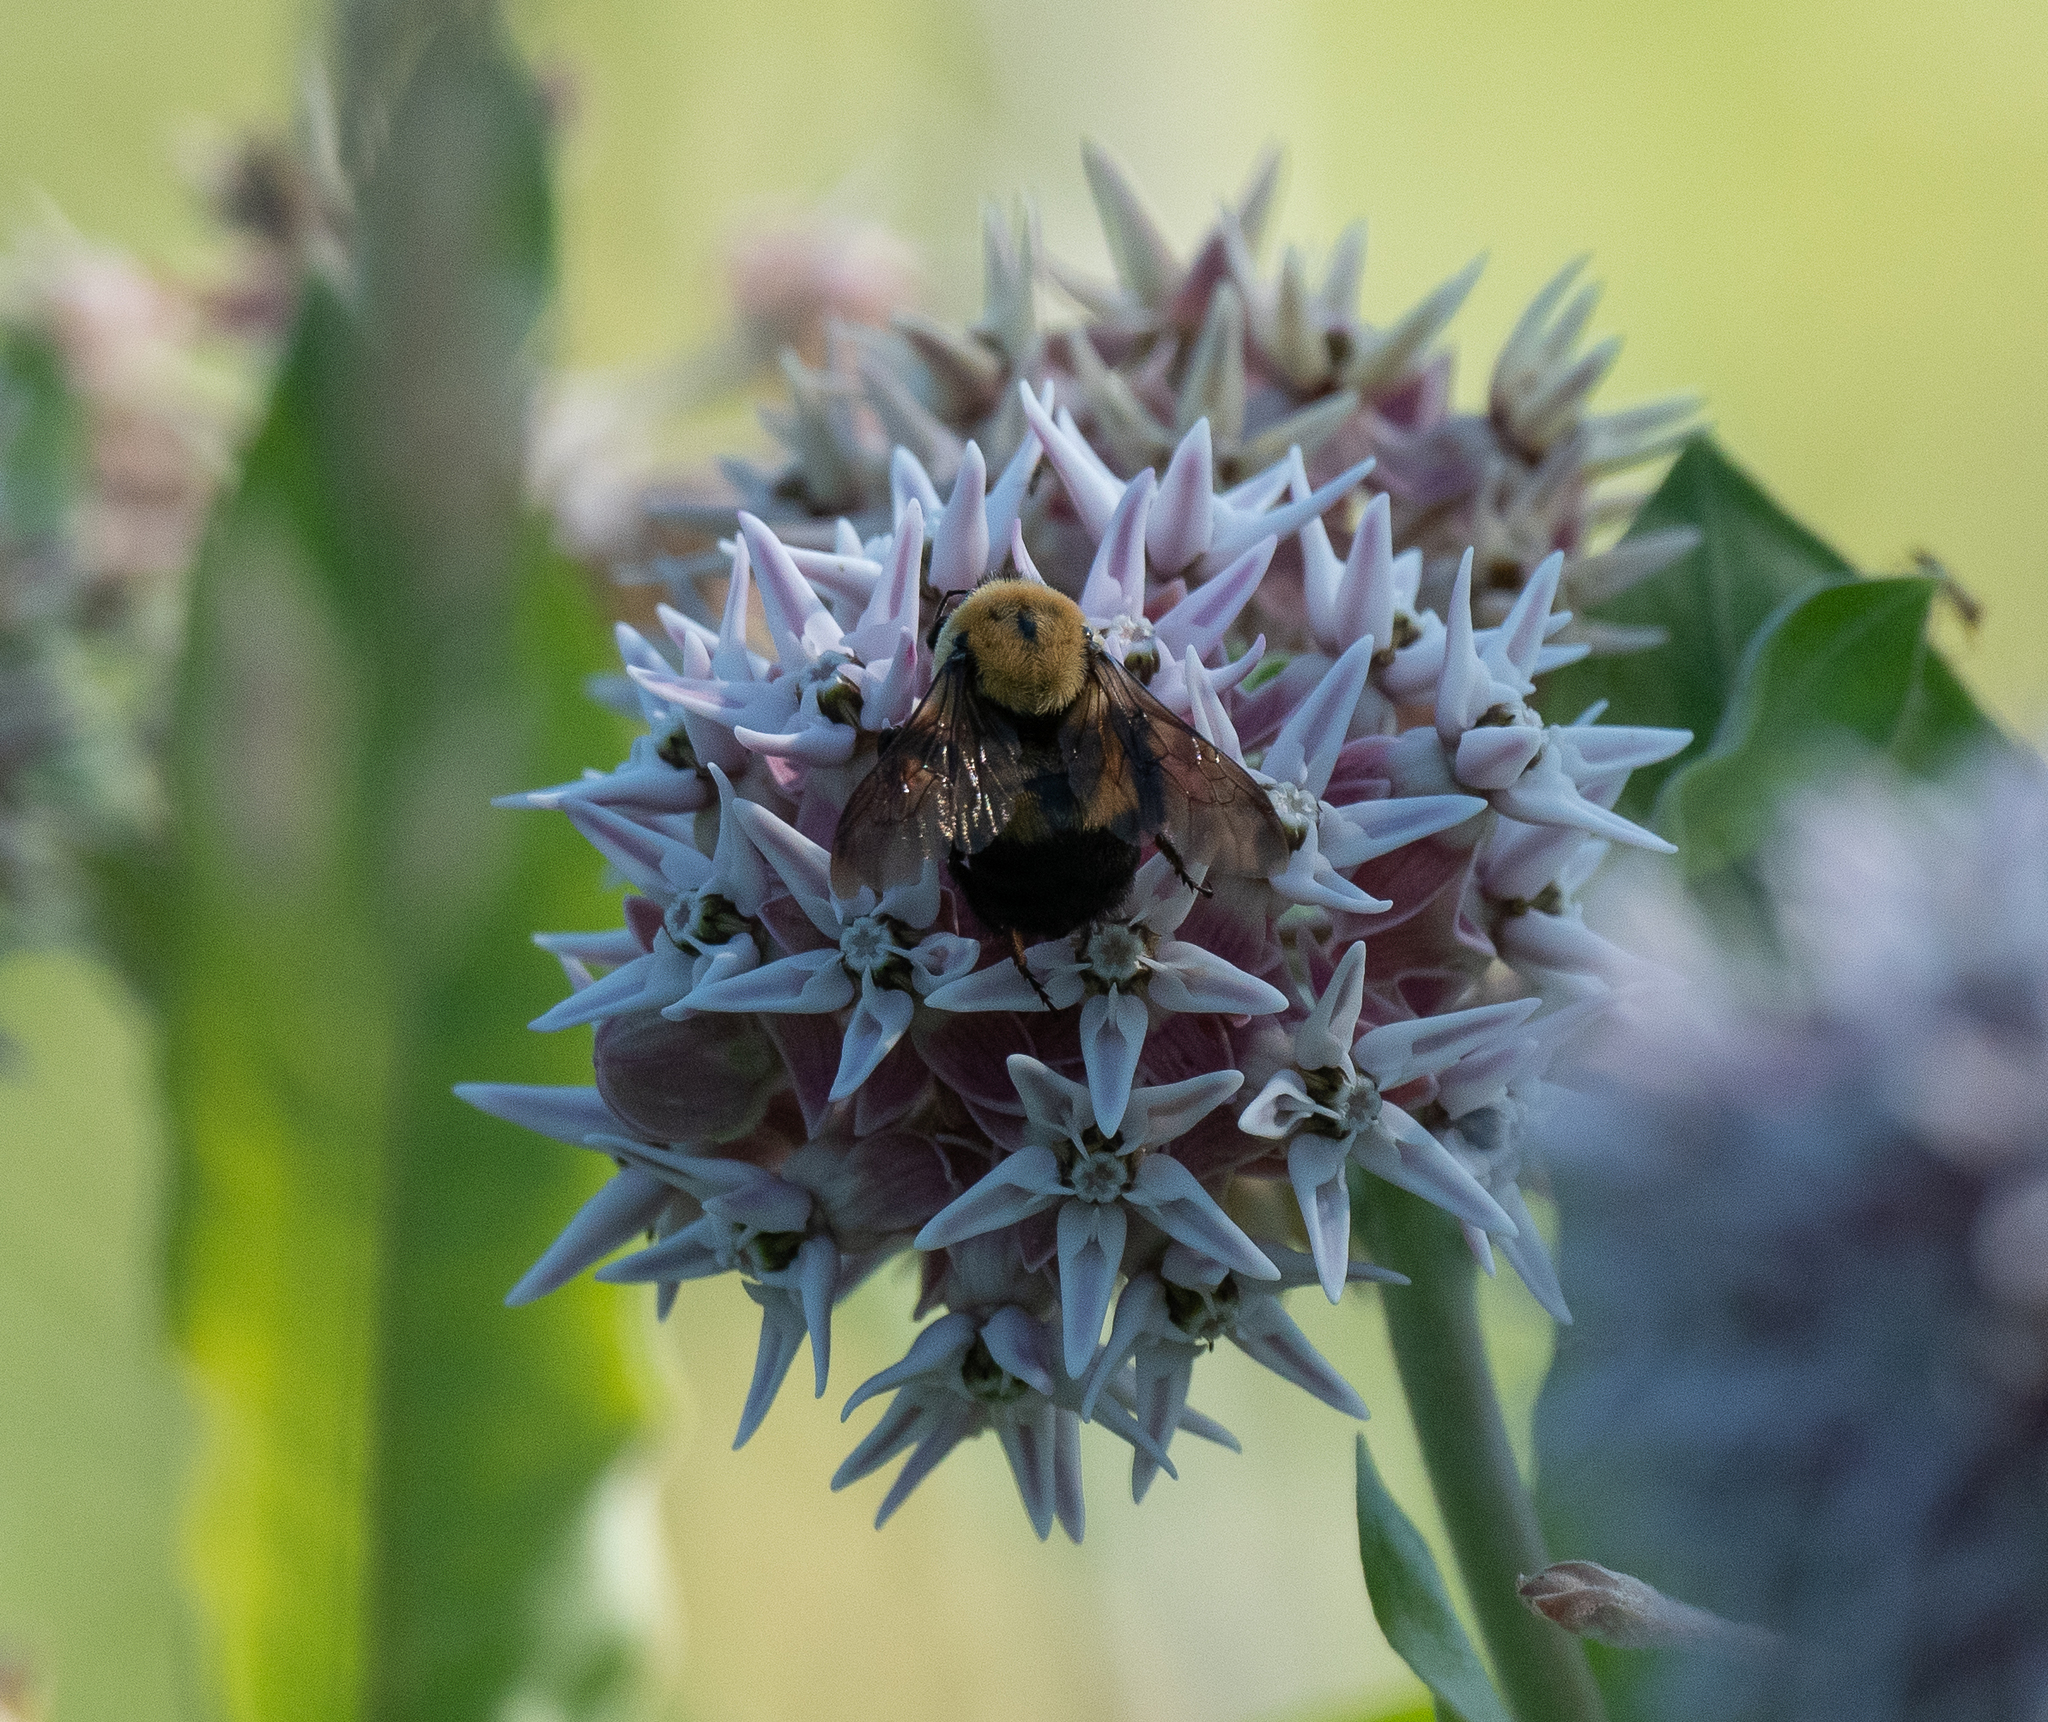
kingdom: Animalia
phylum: Arthropoda
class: Insecta
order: Hymenoptera
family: Apidae
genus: Bombus
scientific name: Bombus griseocollis
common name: Brown-belted bumble bee
